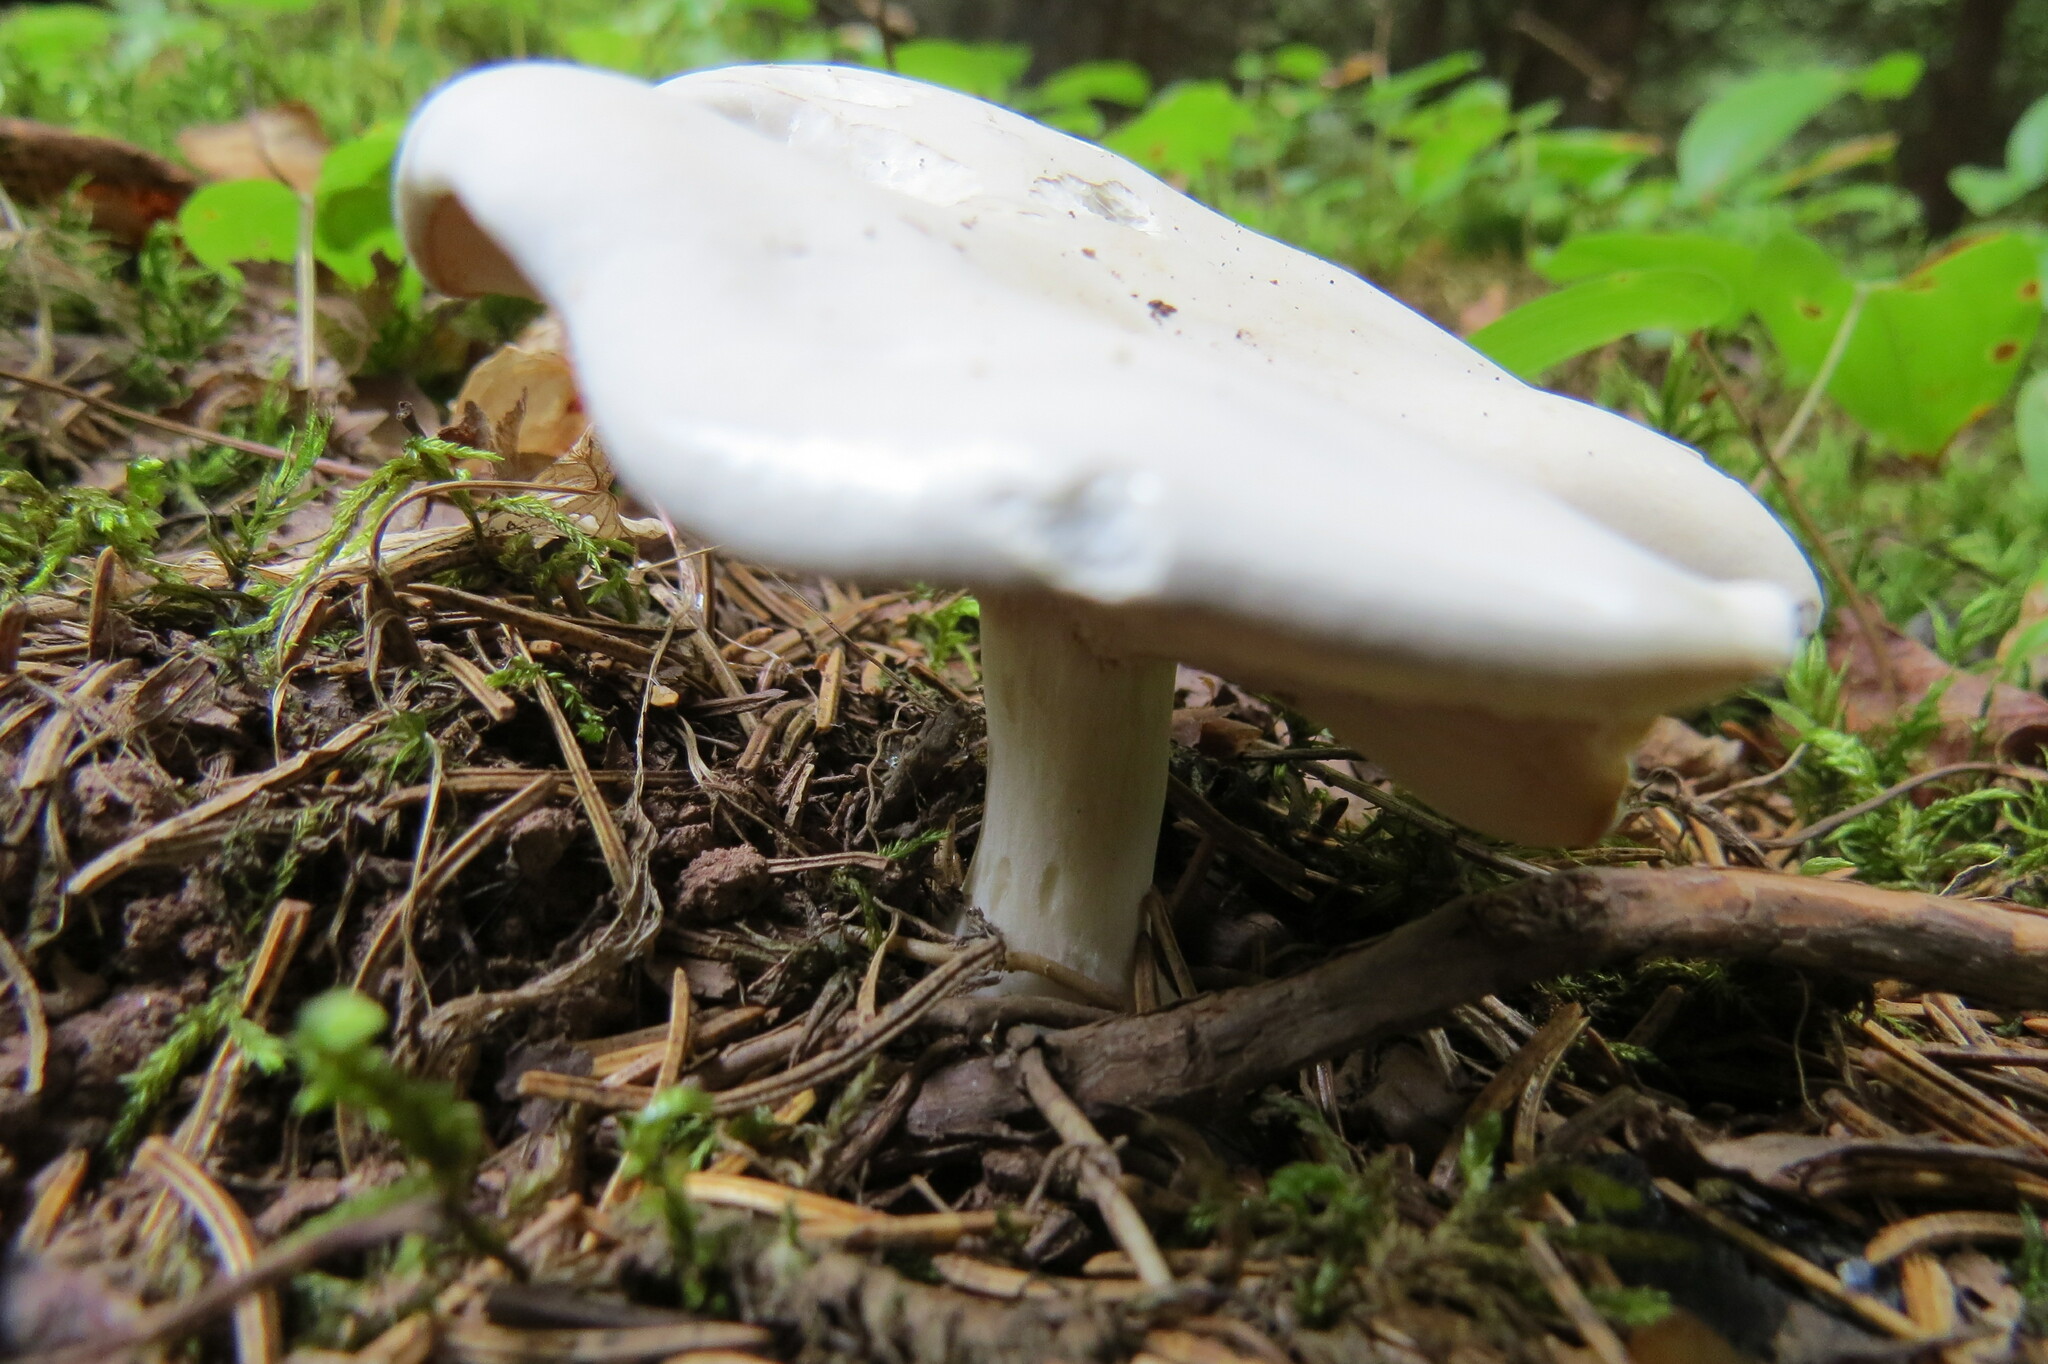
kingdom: Fungi
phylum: Basidiomycota
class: Agaricomycetes
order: Agaricales
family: Entolomataceae
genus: Clitopilus
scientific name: Clitopilus prunulus
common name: The miller
